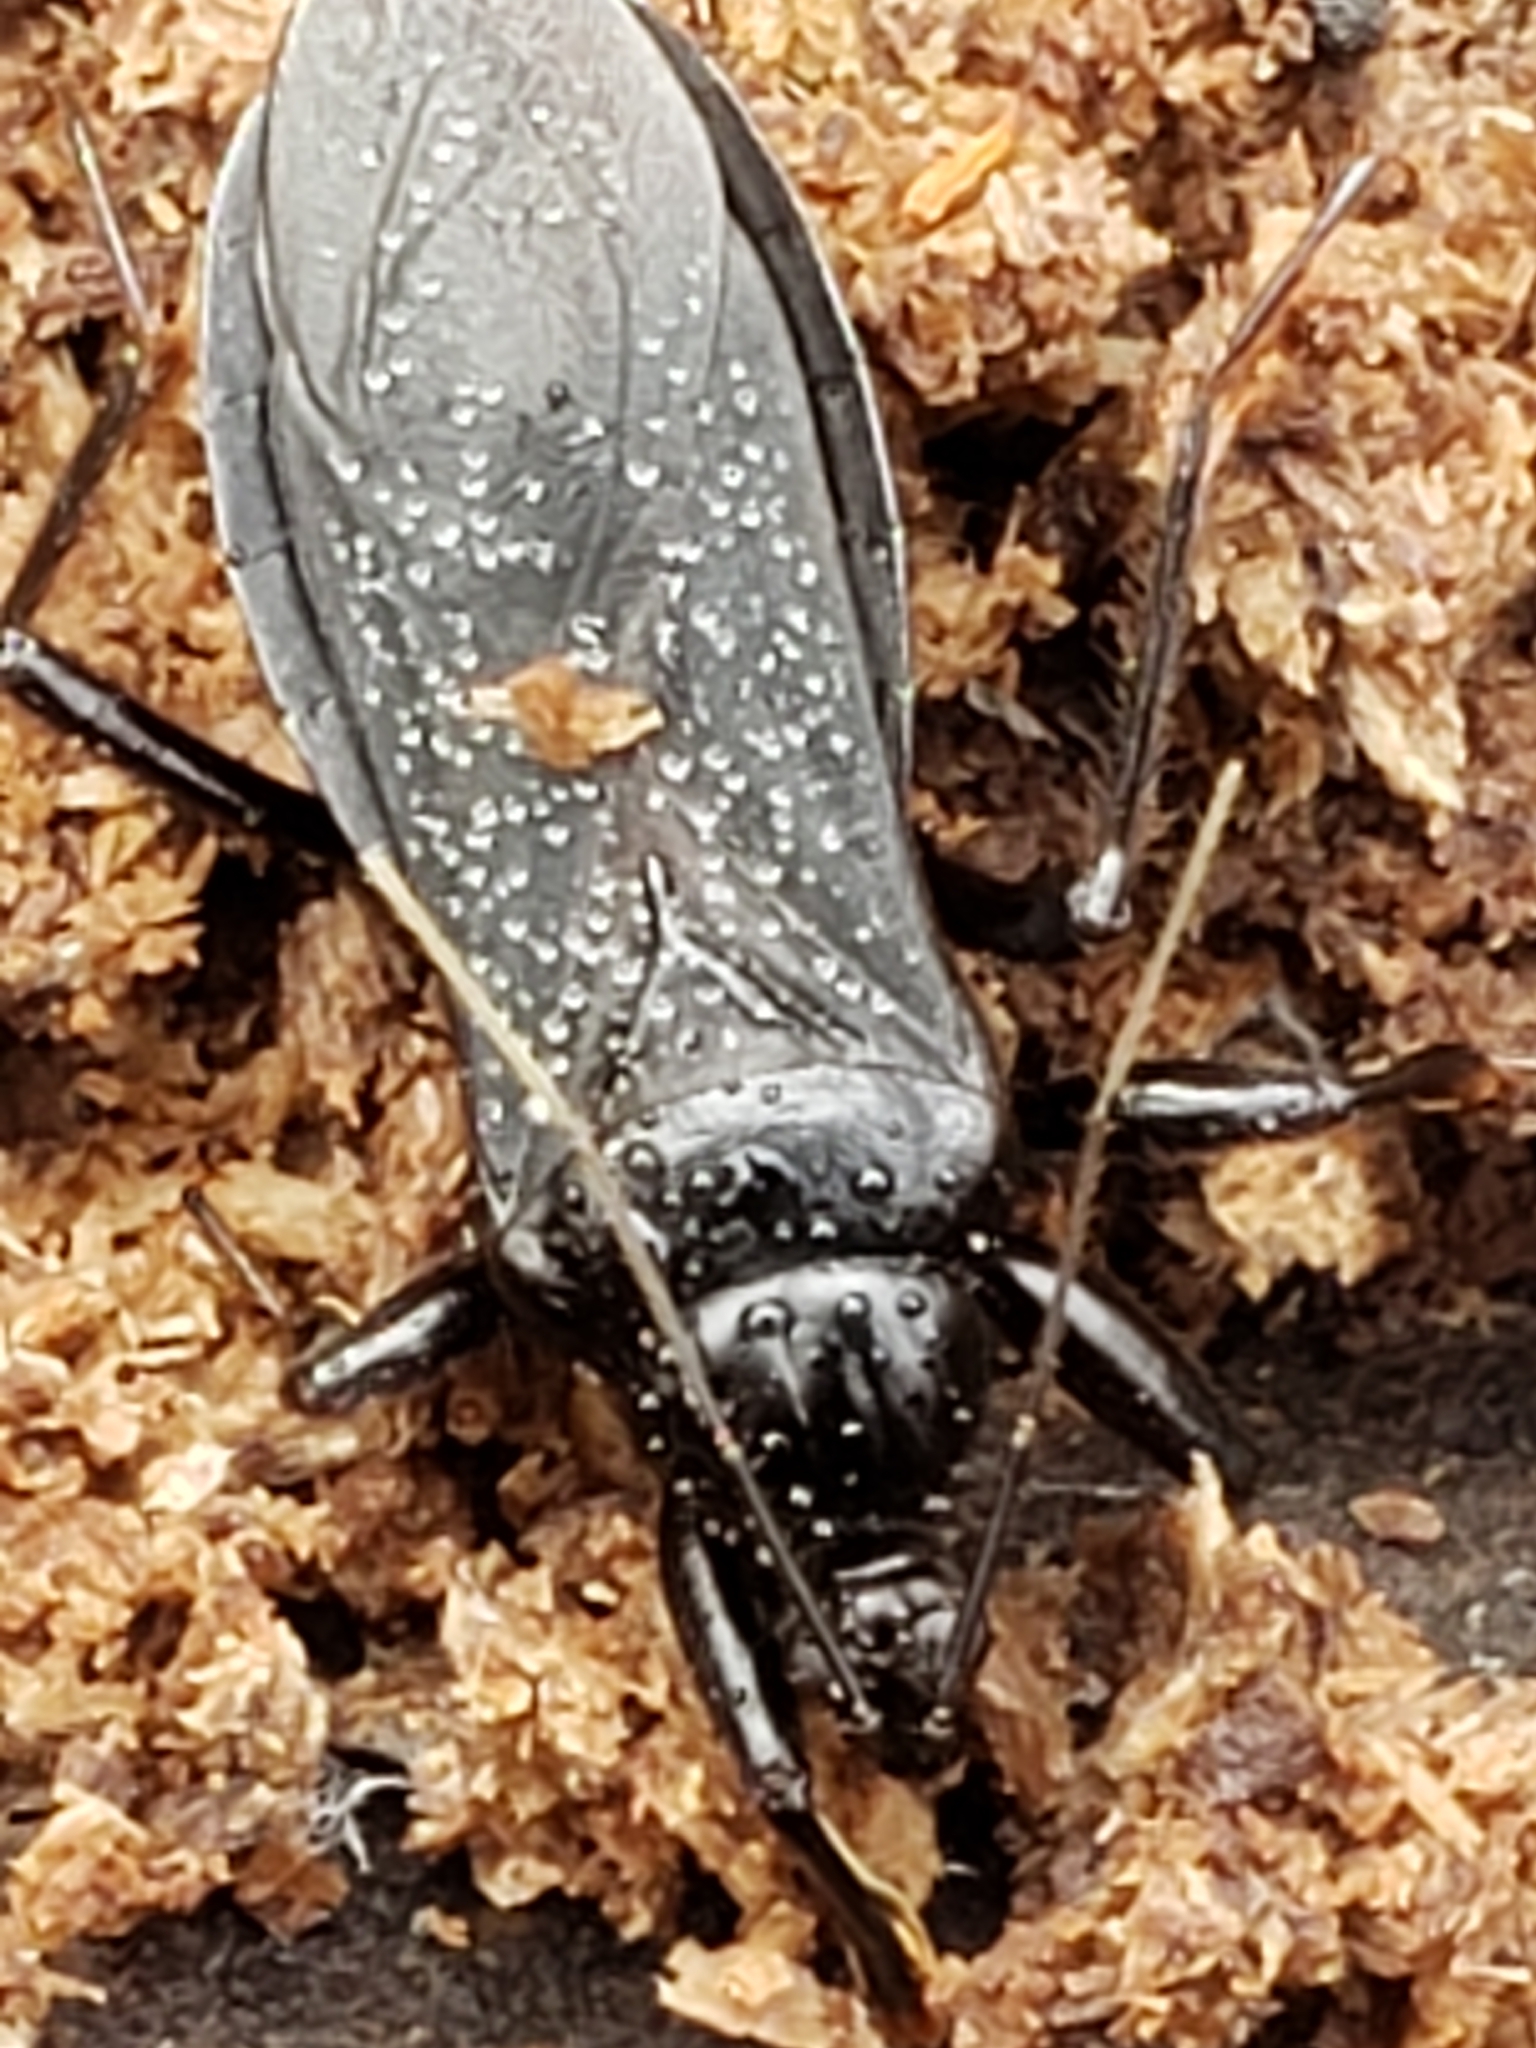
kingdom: Animalia
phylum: Arthropoda
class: Insecta
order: Hemiptera
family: Reduviidae
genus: Melanolestes
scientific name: Melanolestes picipes
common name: Assassin bug
